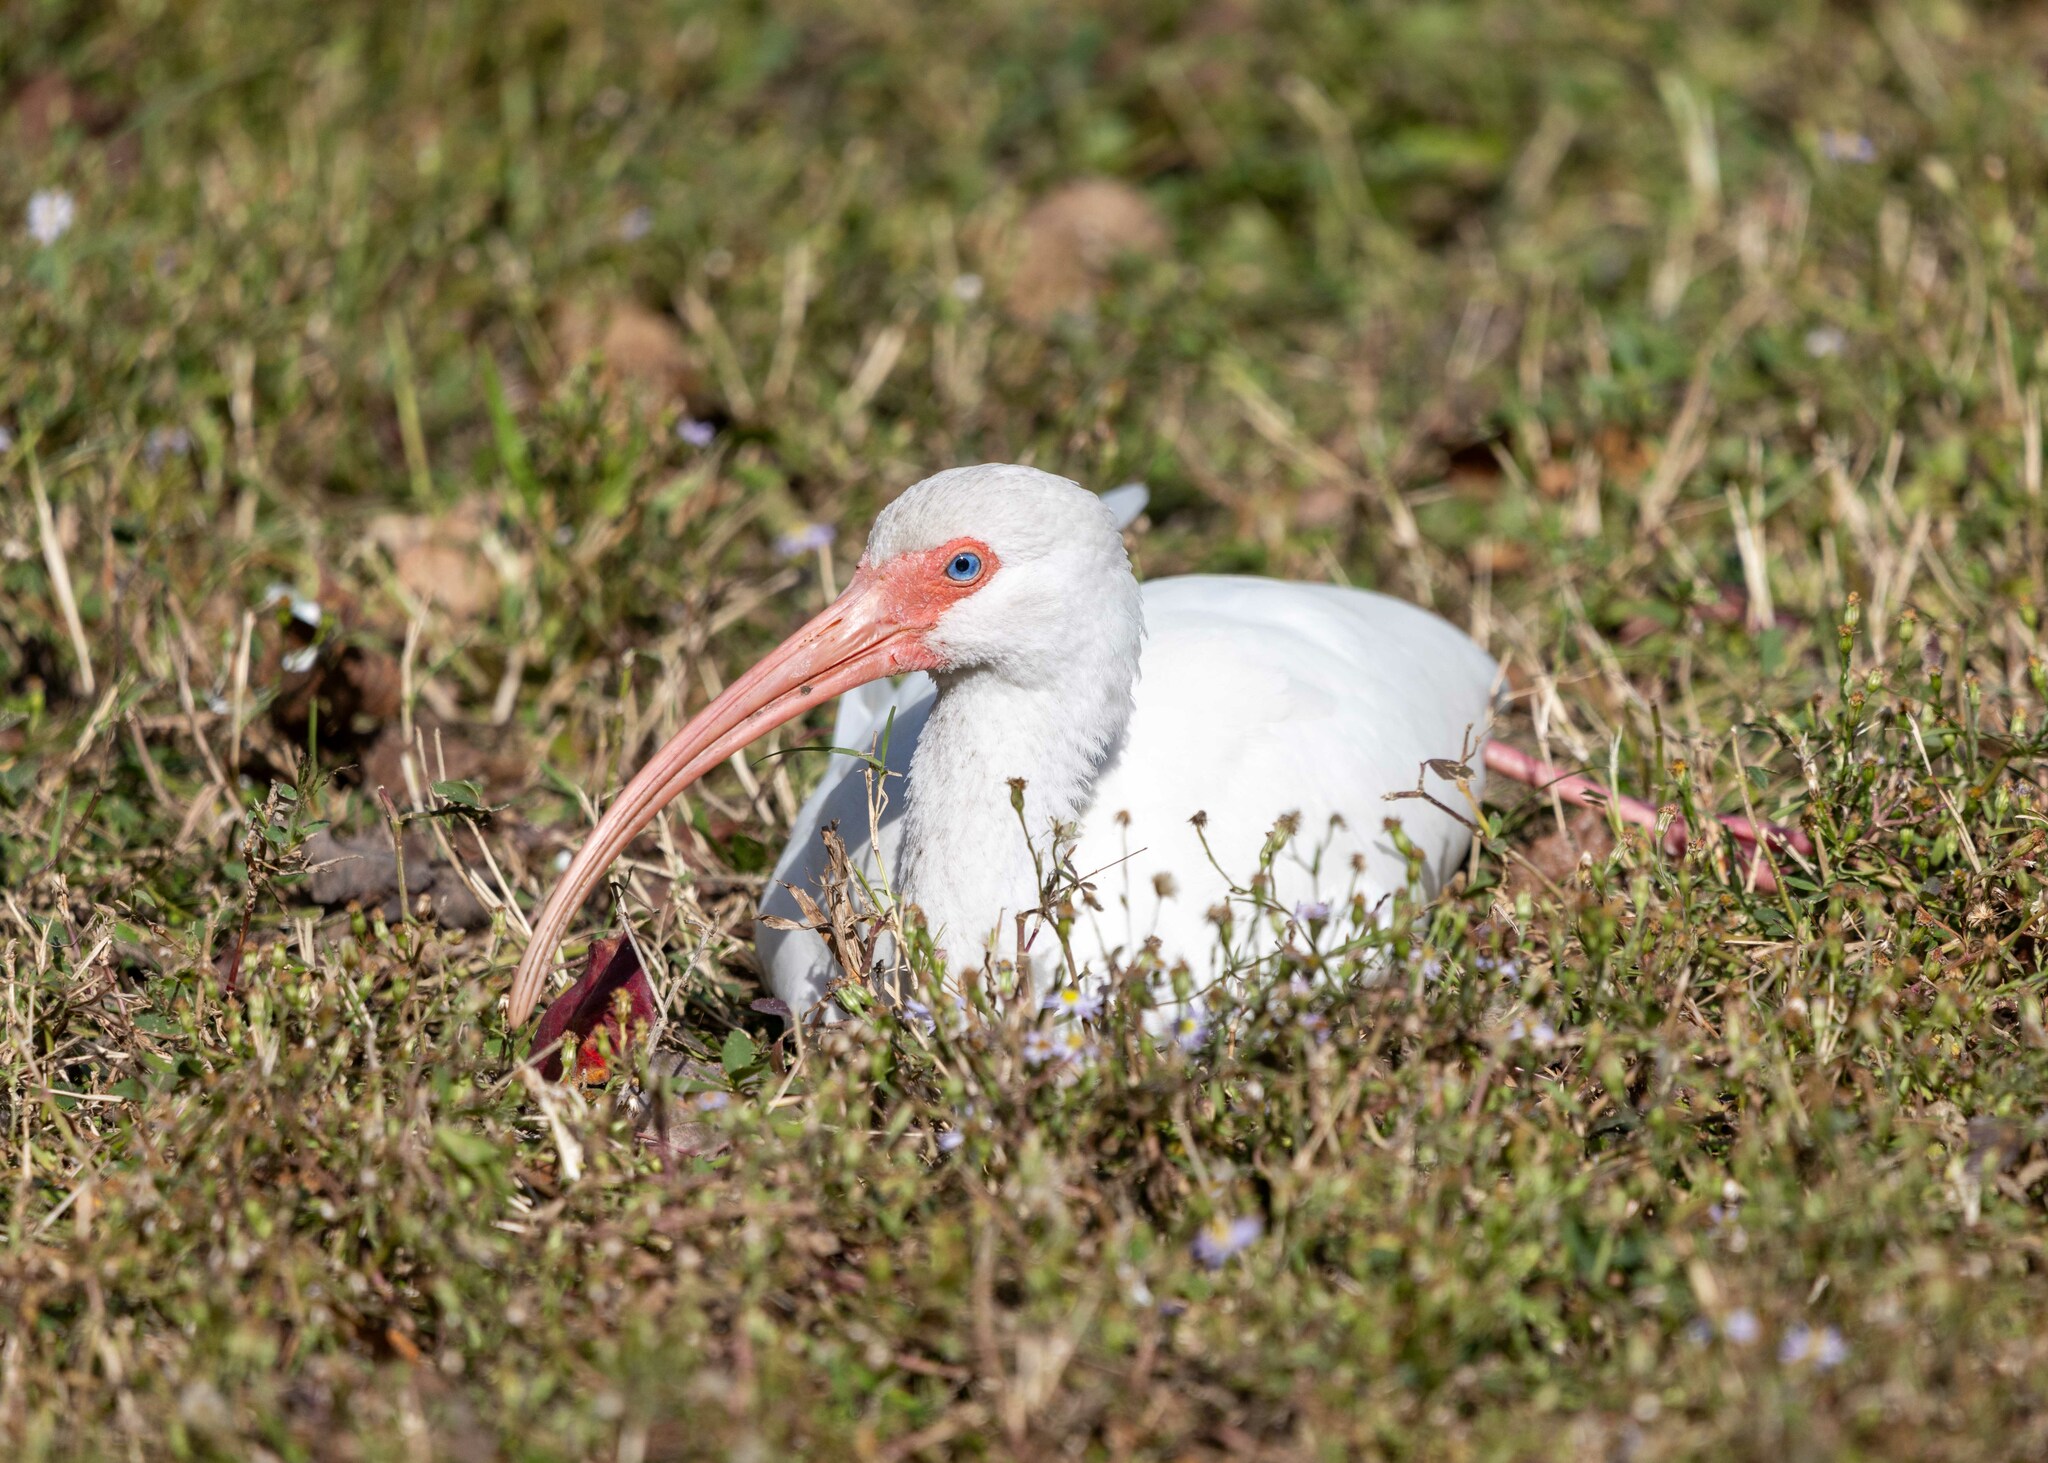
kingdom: Animalia
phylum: Chordata
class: Aves
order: Pelecaniformes
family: Threskiornithidae
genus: Eudocimus
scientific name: Eudocimus albus
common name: White ibis
